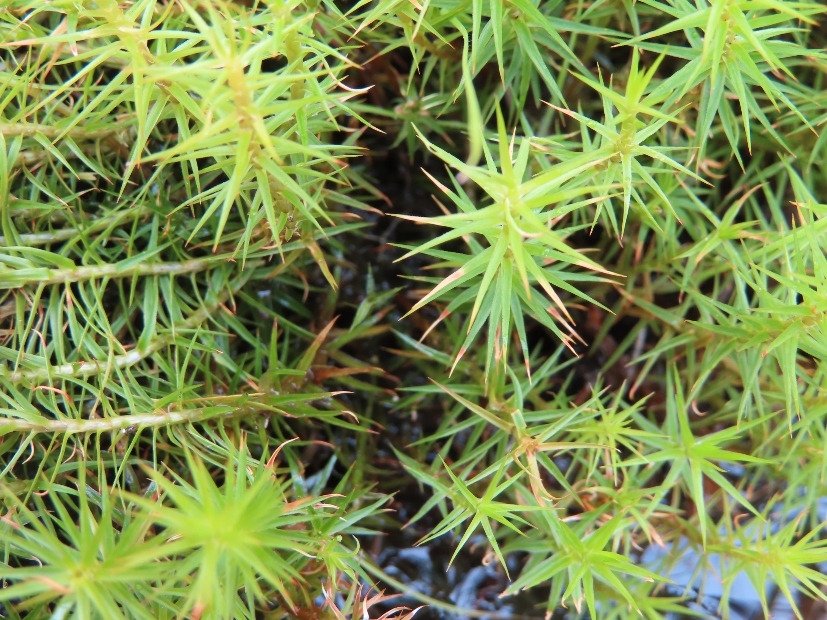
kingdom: Plantae
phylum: Bryophyta
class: Polytrichopsida
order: Polytrichales
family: Polytrichaceae
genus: Polytrichum
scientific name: Polytrichum commune
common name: Common haircap
